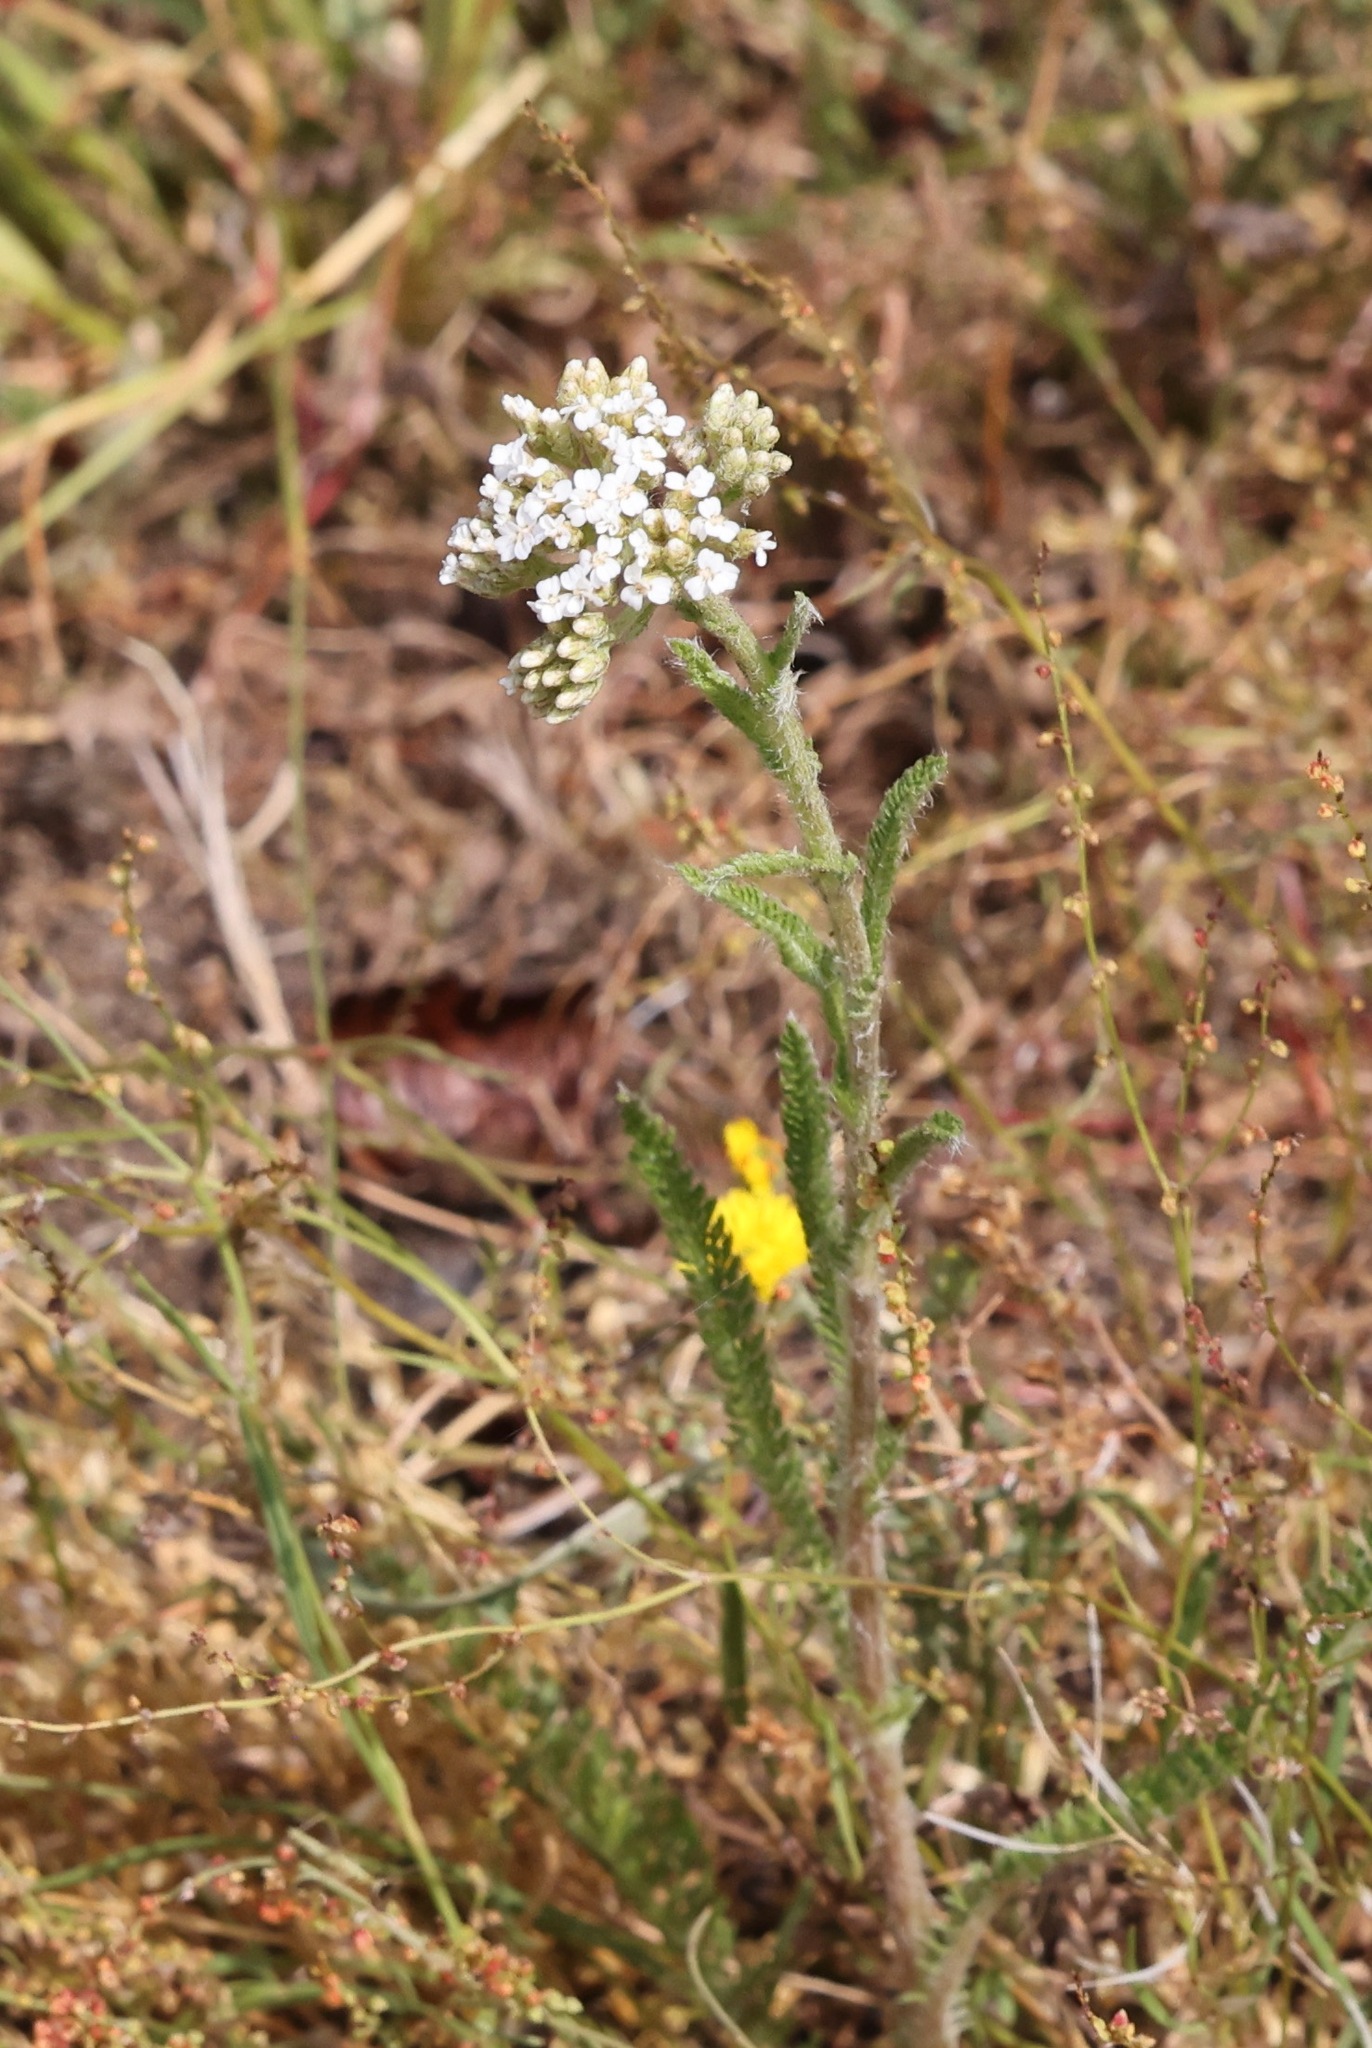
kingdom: Plantae
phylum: Tracheophyta
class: Magnoliopsida
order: Asterales
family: Asteraceae
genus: Achillea
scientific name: Achillea millefolium
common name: Yarrow
